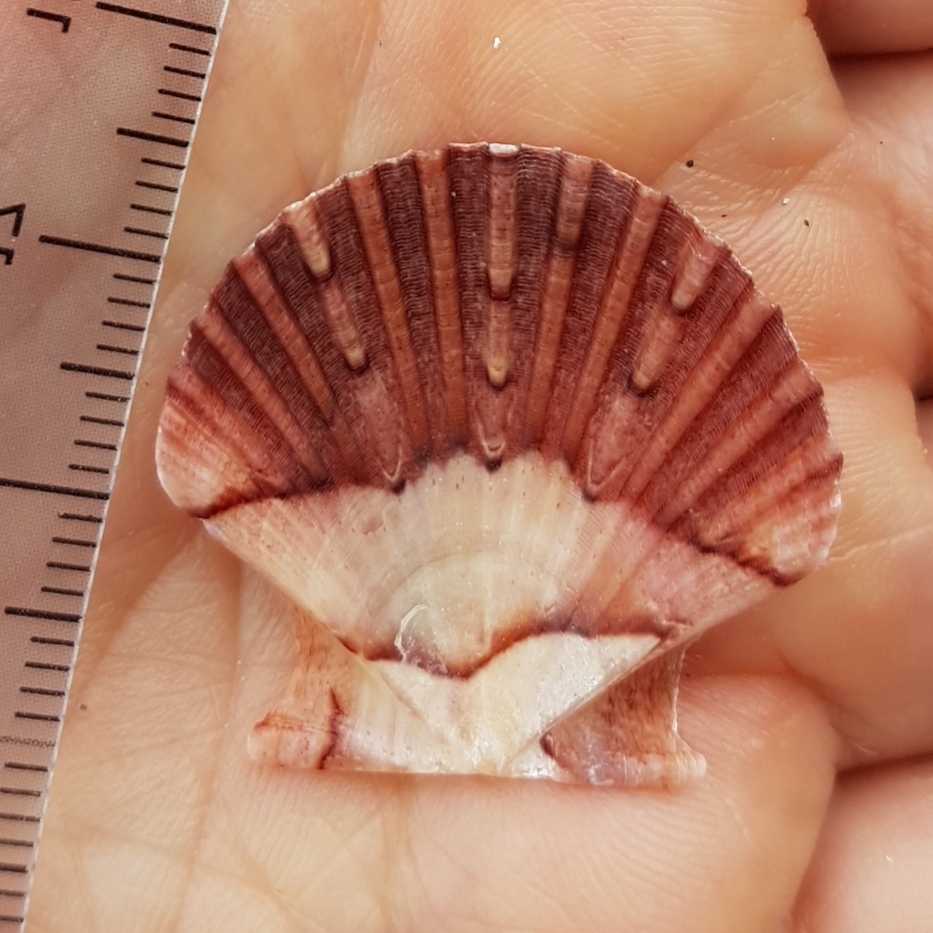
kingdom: Animalia
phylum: Mollusca
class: Bivalvia
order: Pectinida
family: Pectinidae
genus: Pecten
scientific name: Pecten jacobaeus
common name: St.james's scallop
